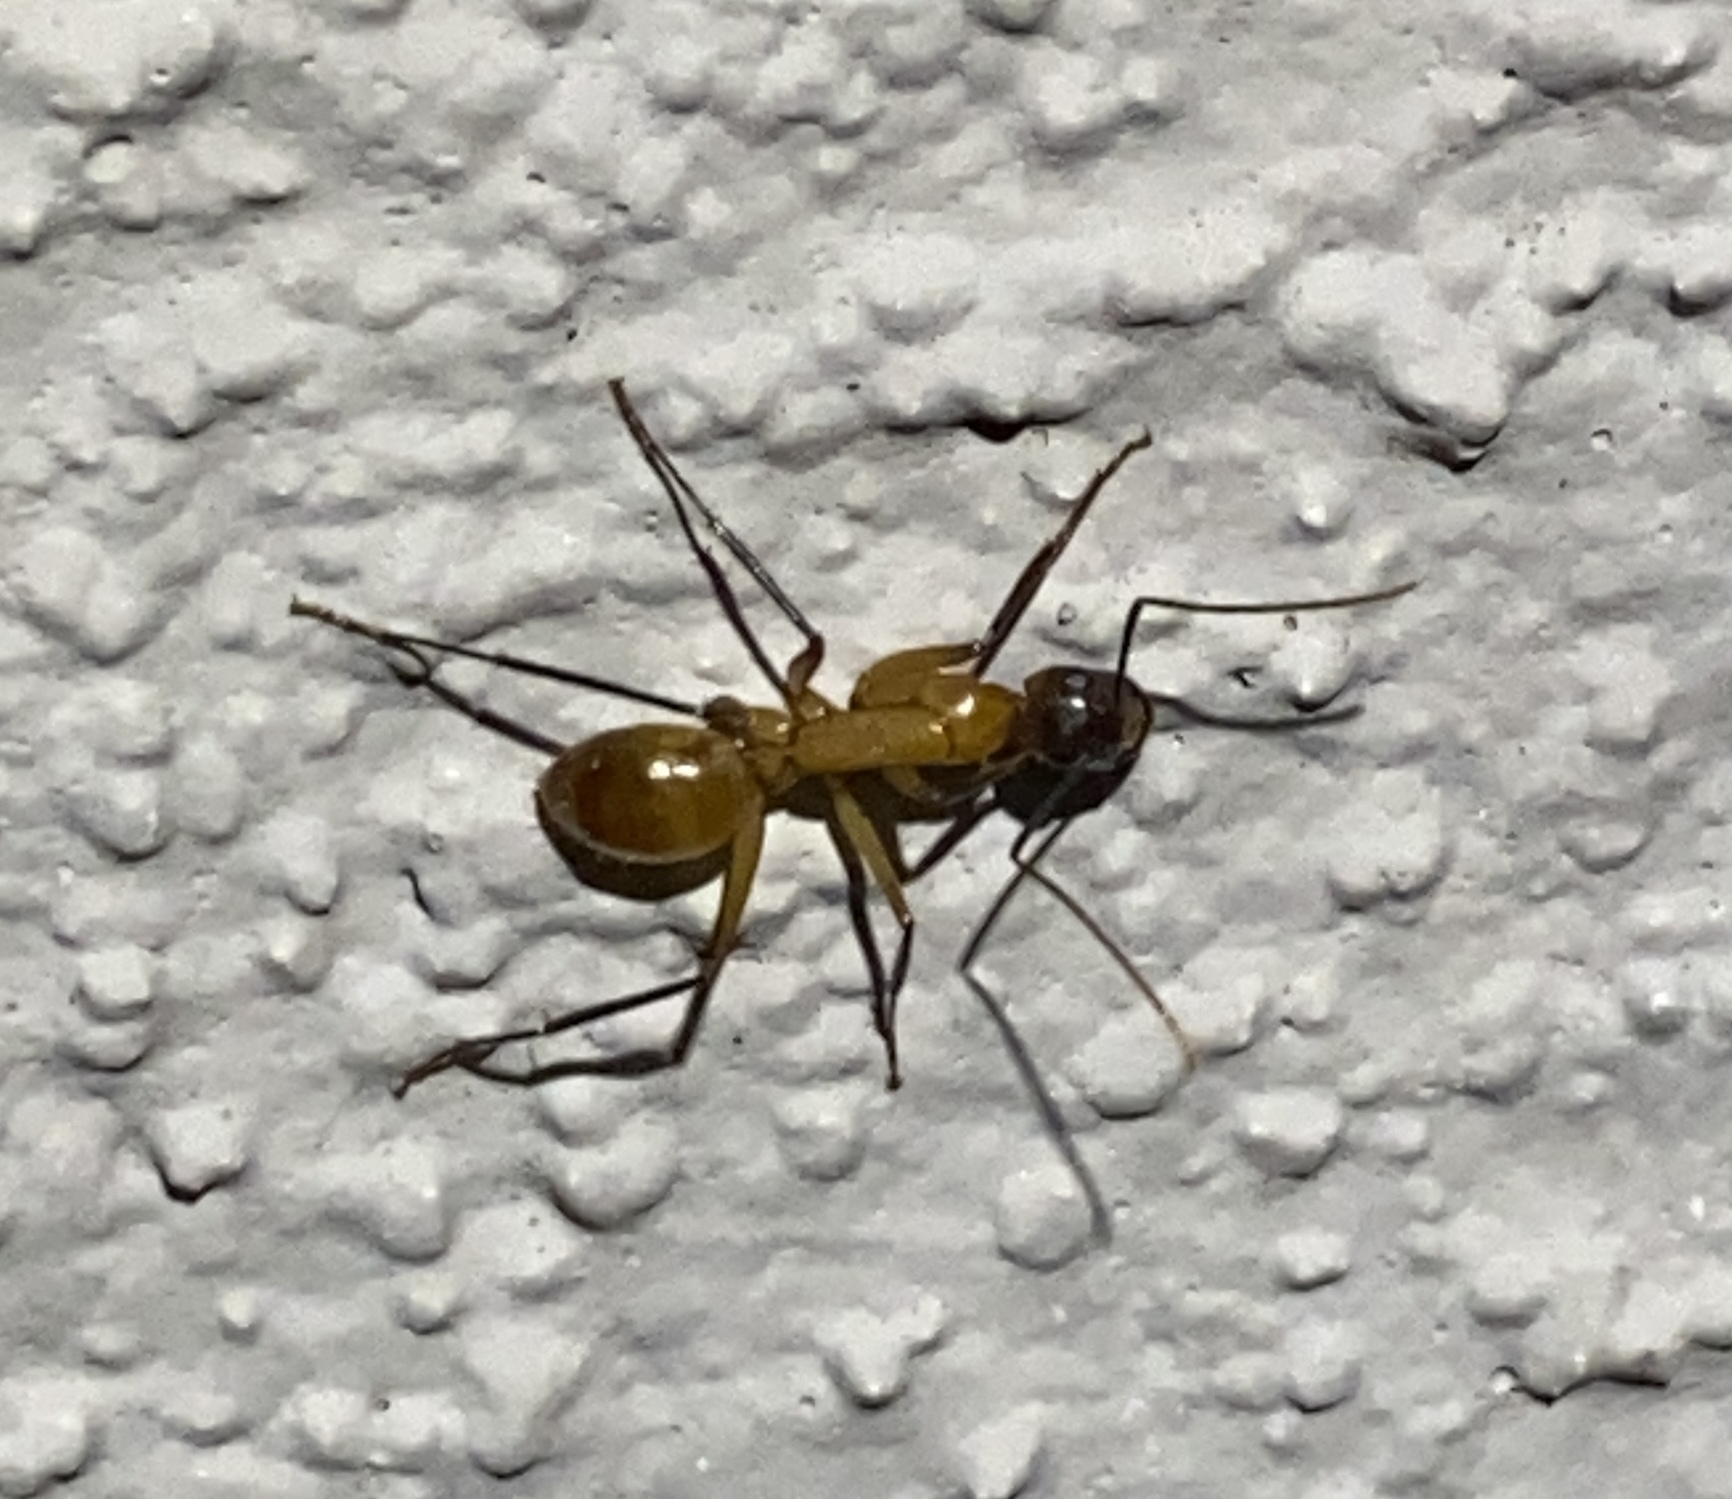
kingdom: Animalia
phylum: Arthropoda
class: Insecta
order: Hymenoptera
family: Formicidae
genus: Camponotus
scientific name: Camponotus ocreatus
